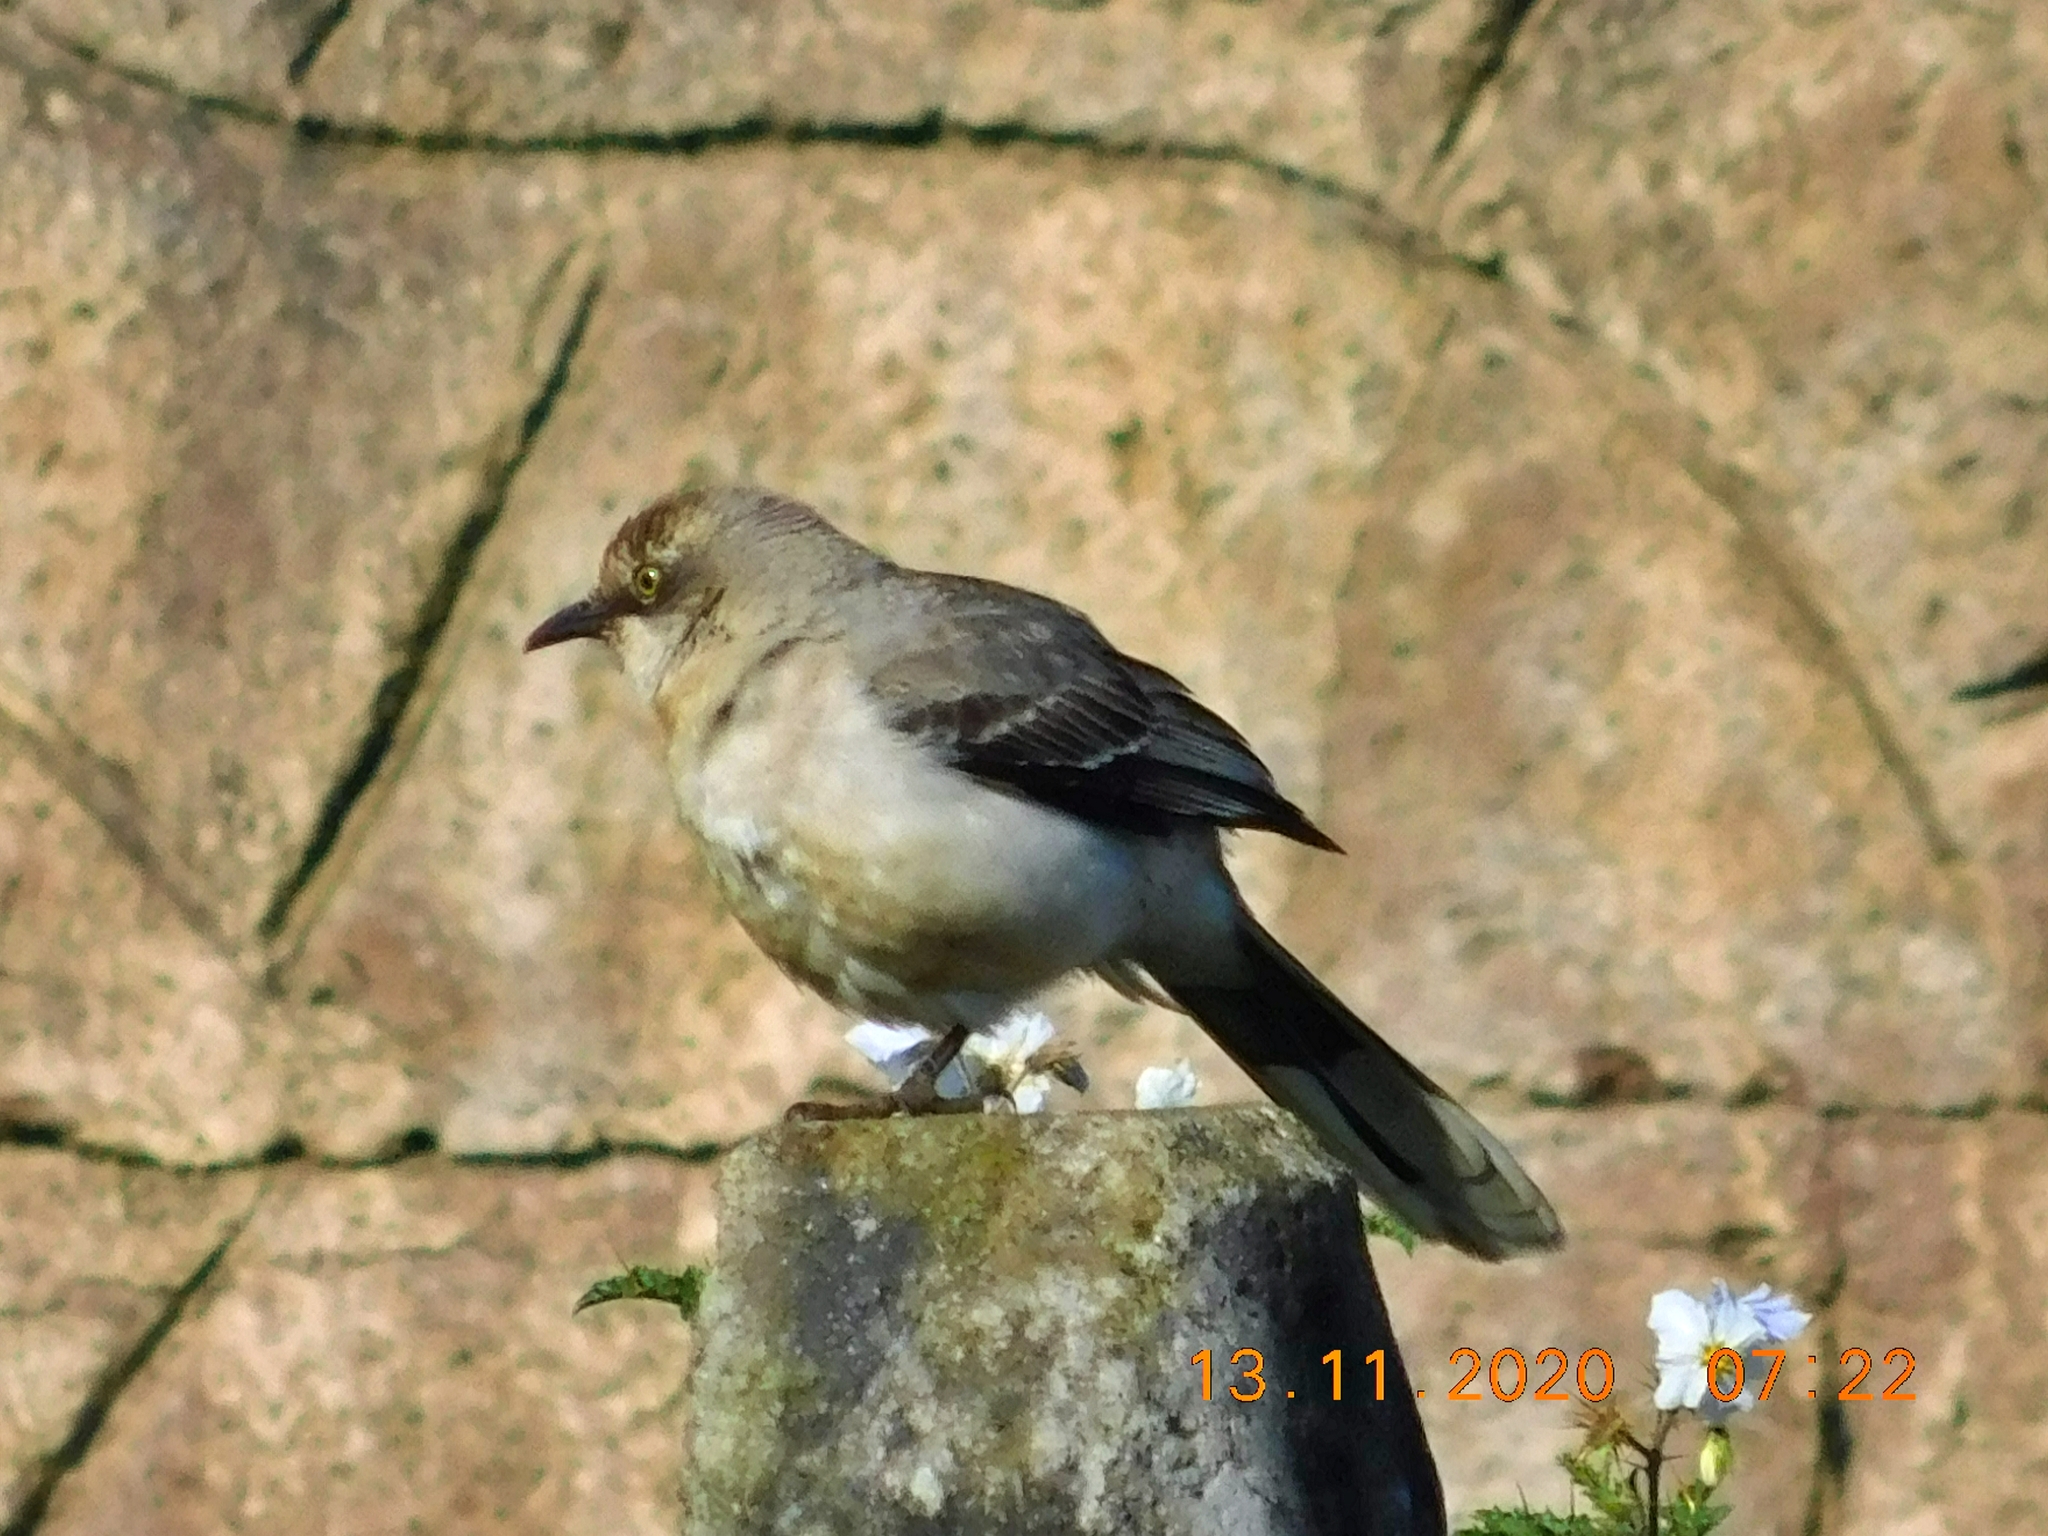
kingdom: Animalia
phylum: Chordata
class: Aves
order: Passeriformes
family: Mimidae
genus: Mimus
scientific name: Mimus gilvus
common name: Tropical mockingbird
